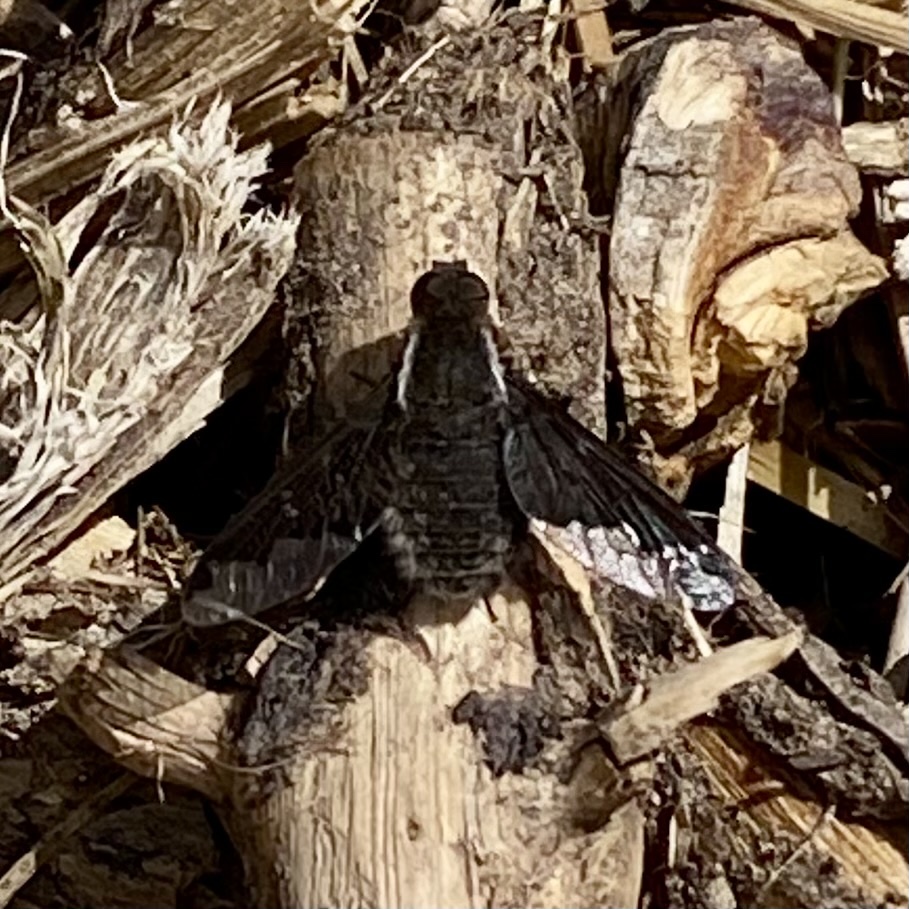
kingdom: Animalia
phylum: Arthropoda
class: Insecta
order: Diptera
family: Bombyliidae
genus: Hemipenthes
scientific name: Hemipenthes
